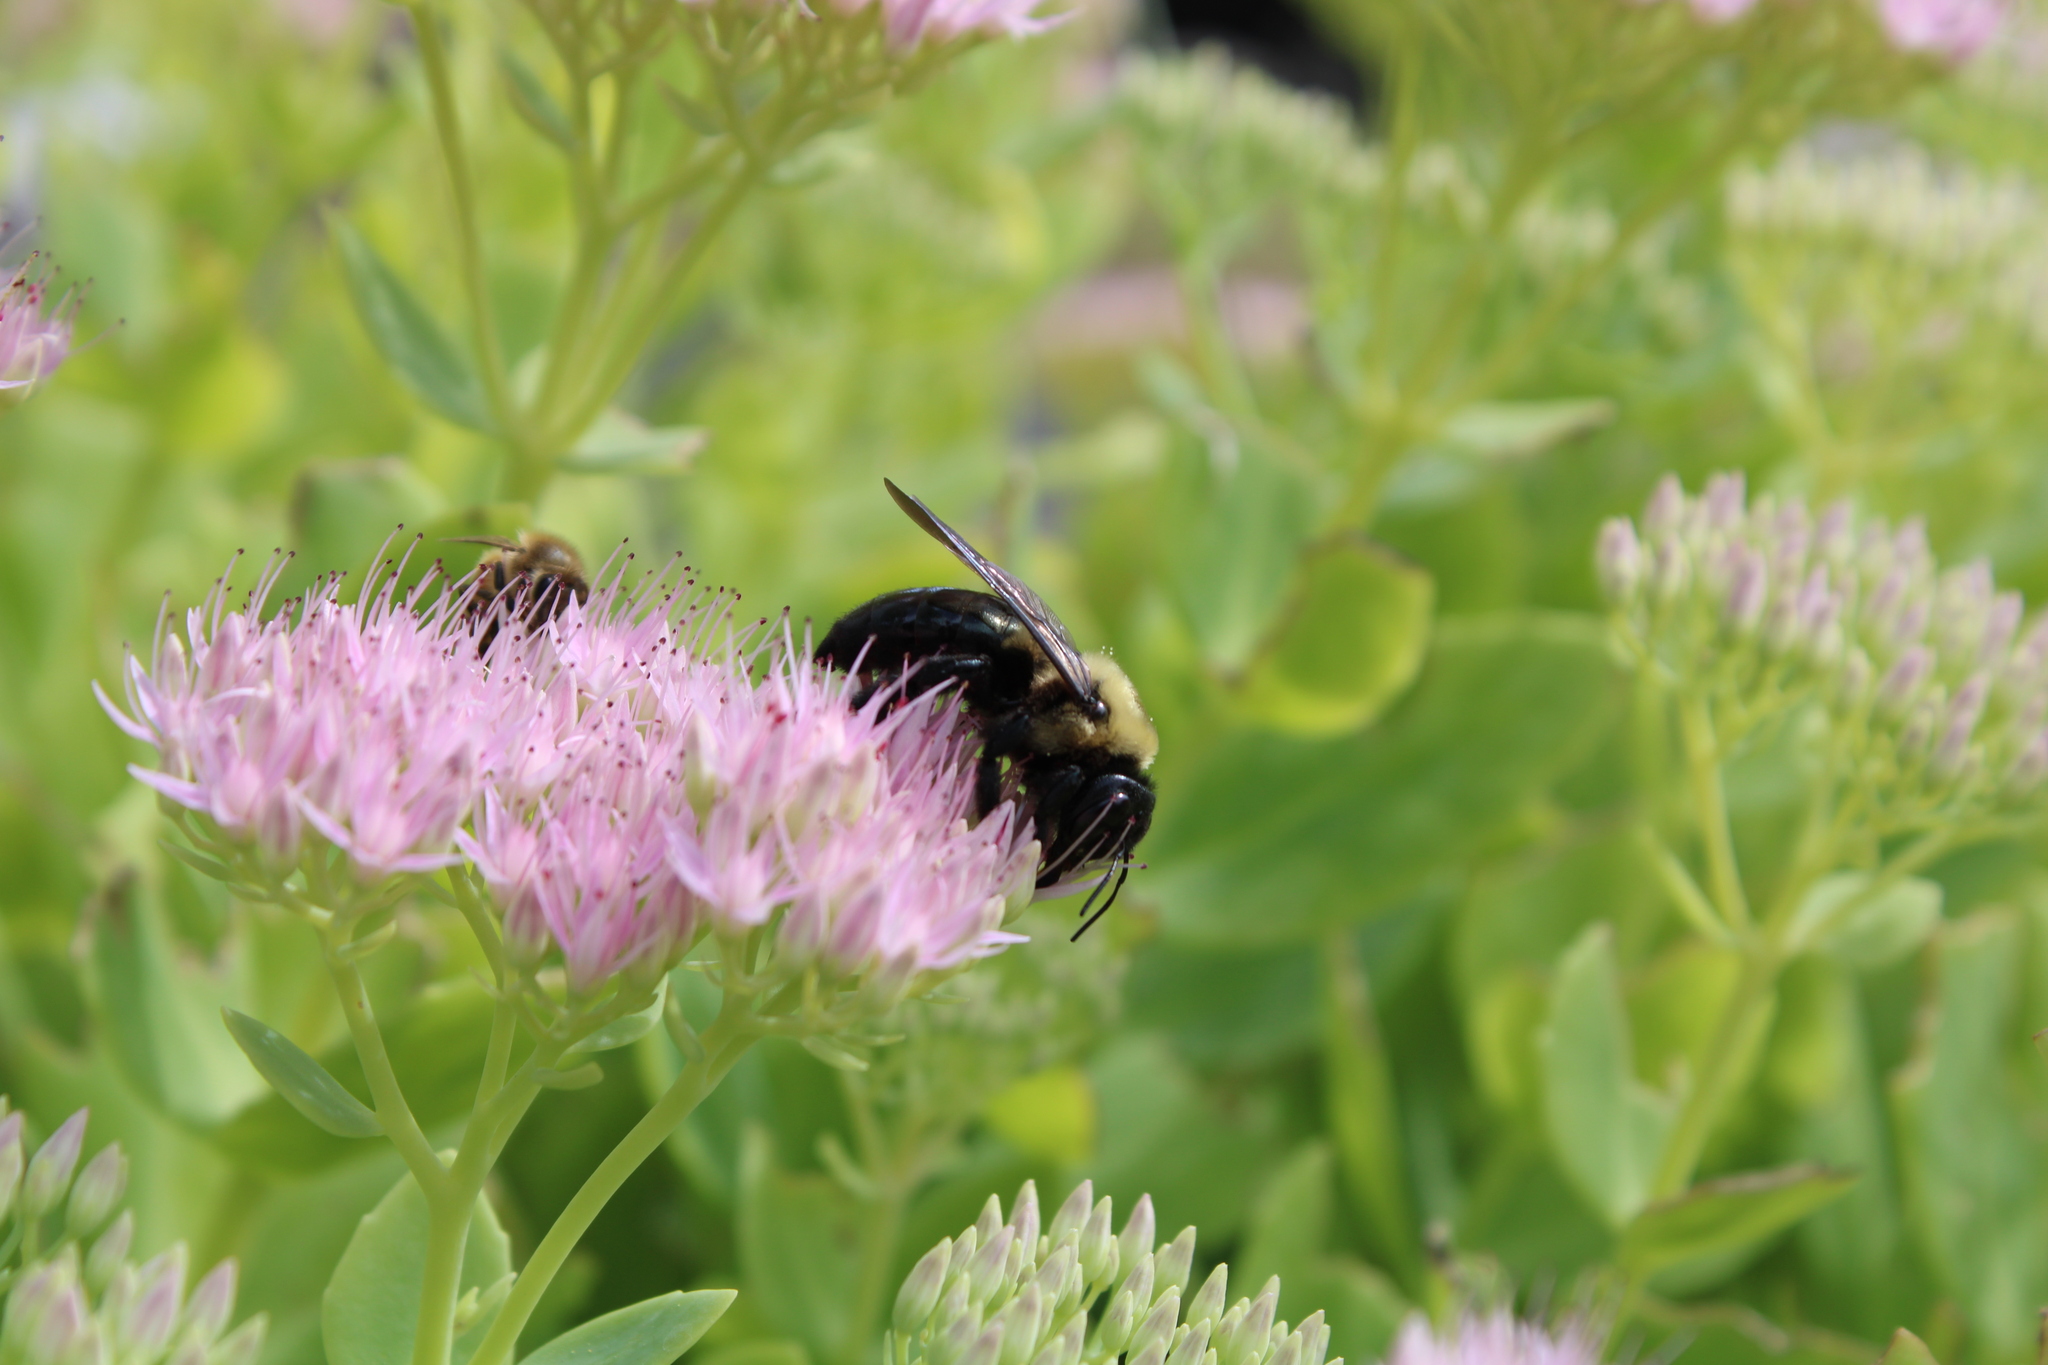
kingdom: Animalia
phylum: Arthropoda
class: Insecta
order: Hymenoptera
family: Apidae
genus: Xylocopa
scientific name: Xylocopa virginica
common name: Carpenter bee
